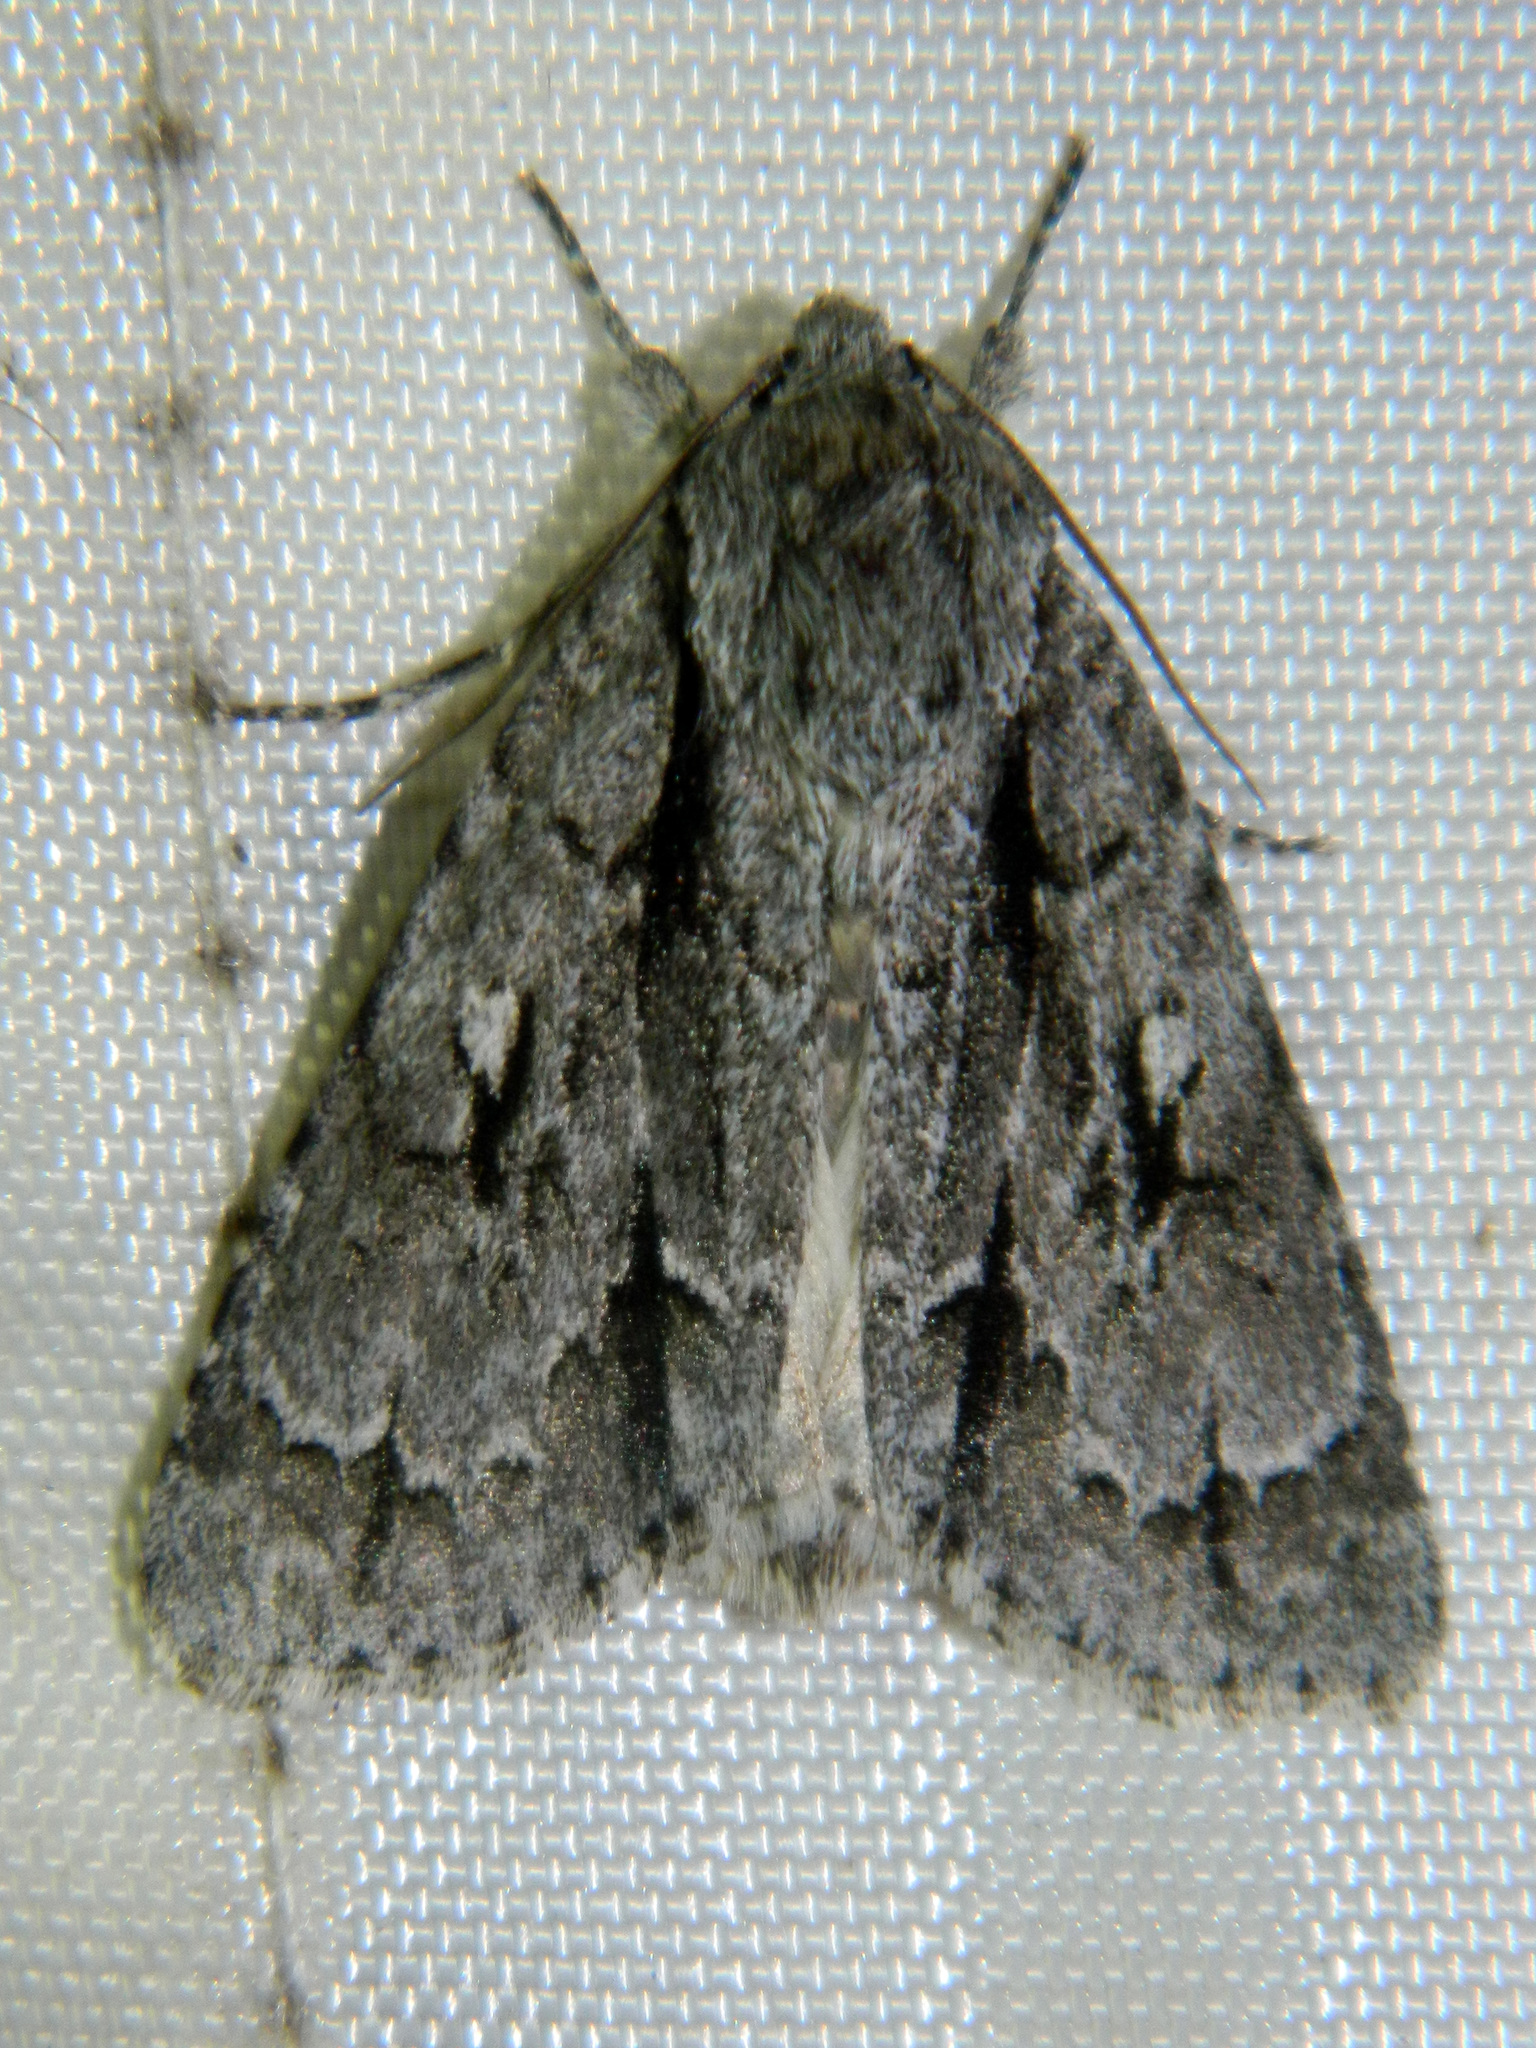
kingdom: Animalia
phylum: Arthropoda
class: Insecta
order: Lepidoptera
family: Noctuidae
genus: Acronicta
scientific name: Acronicta hasta
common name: Cherry dagger
